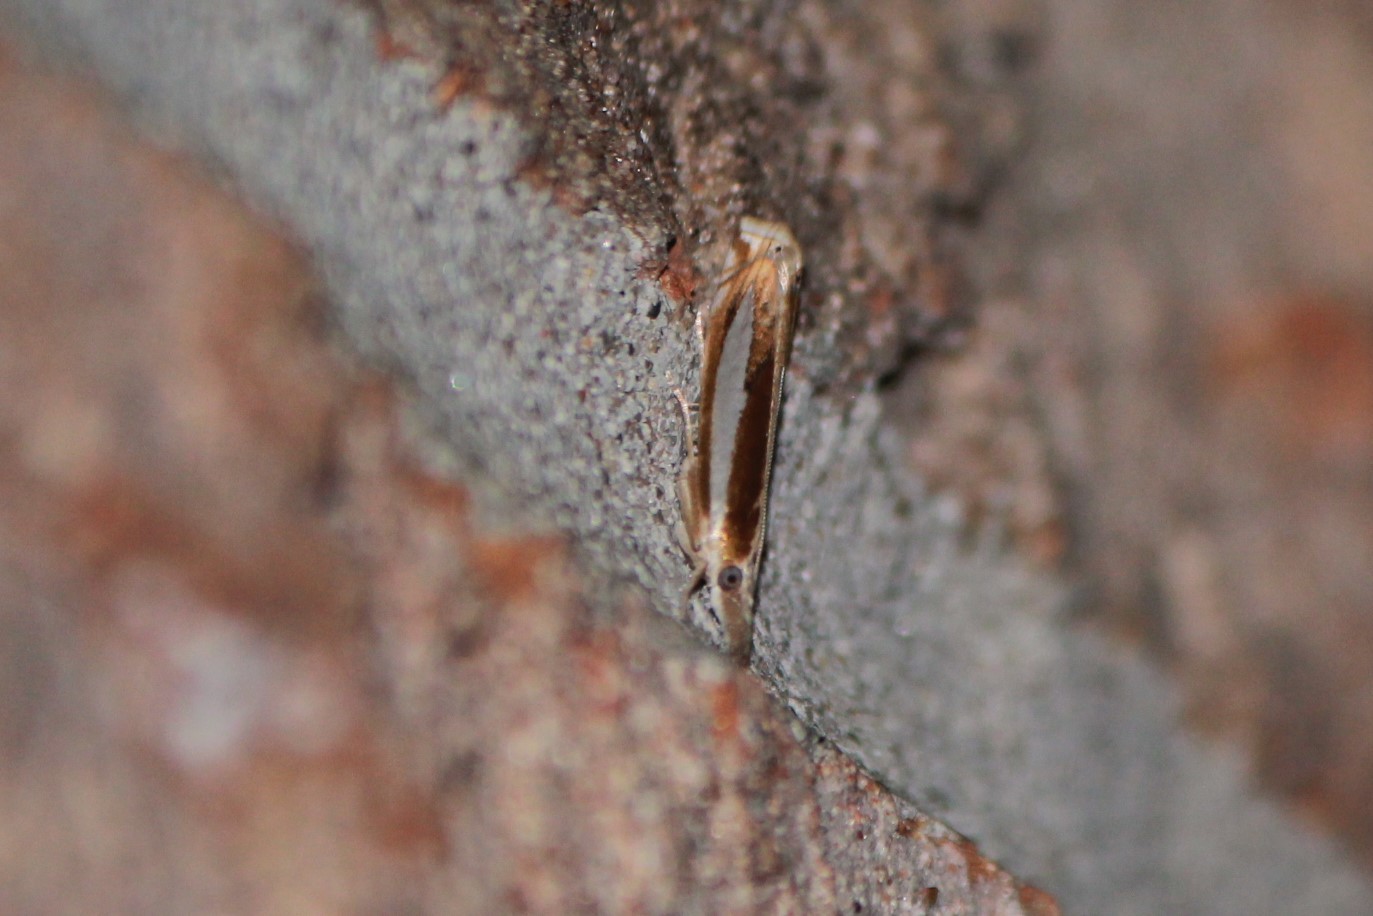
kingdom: Animalia
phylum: Arthropoda
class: Insecta
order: Lepidoptera
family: Crambidae
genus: Crambus
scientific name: Crambus praefectellus
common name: Common grass-veneer
